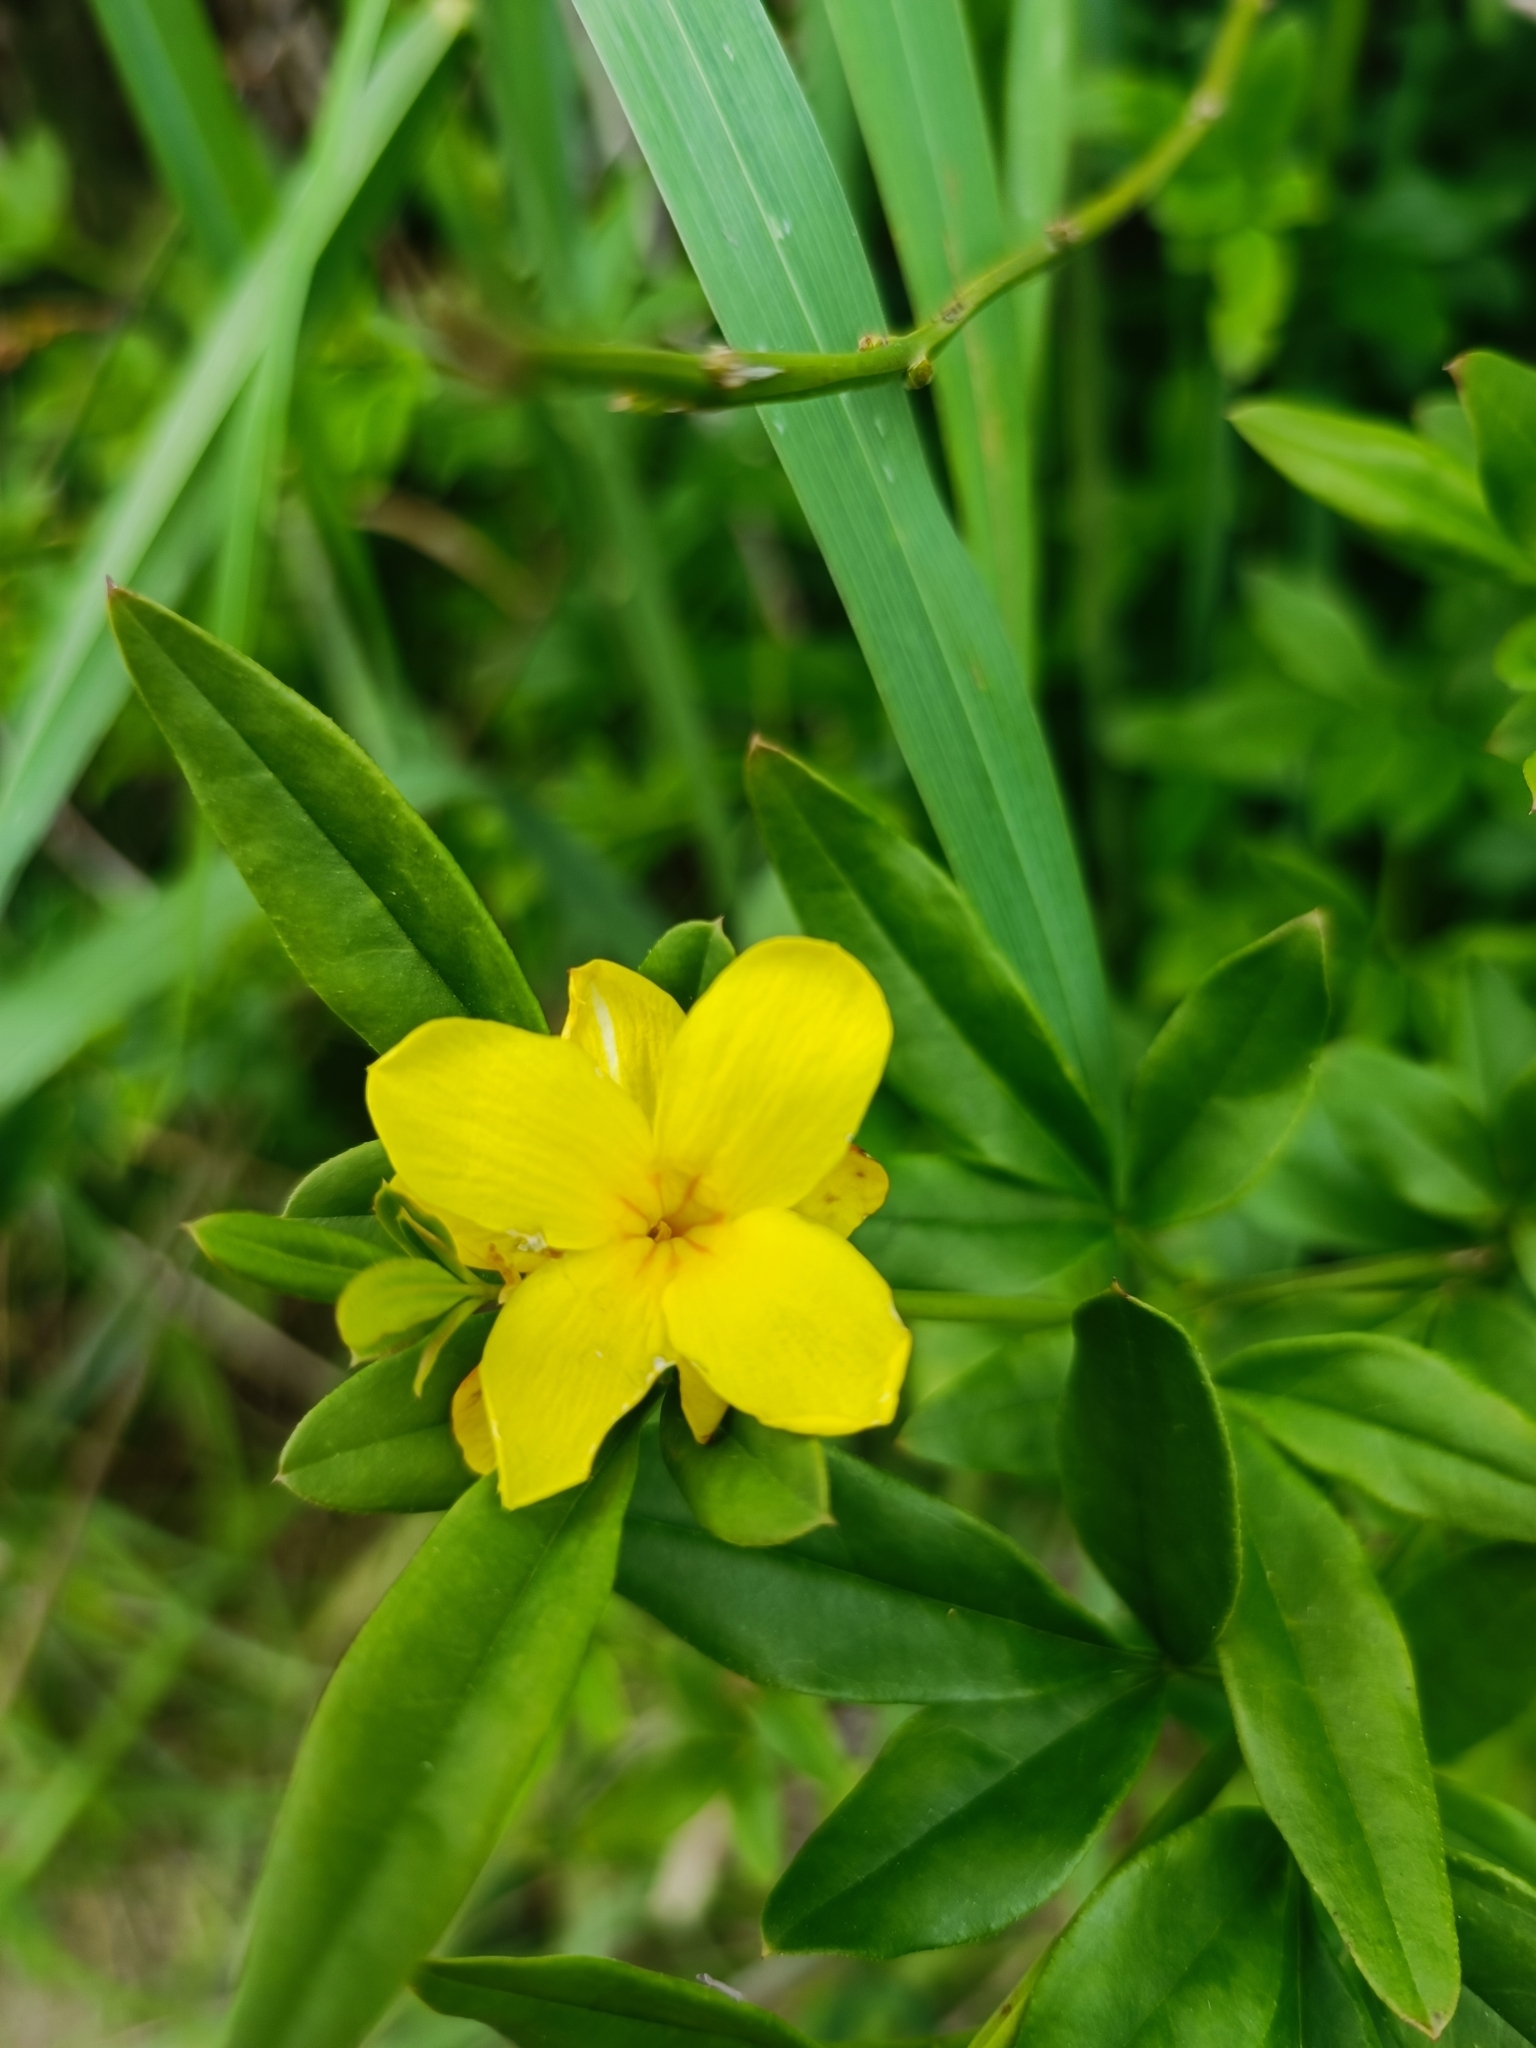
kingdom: Plantae
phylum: Tracheophyta
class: Magnoliopsida
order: Lamiales
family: Oleaceae
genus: Jasminum
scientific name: Jasminum mesnyi
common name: Japanese jasmine
